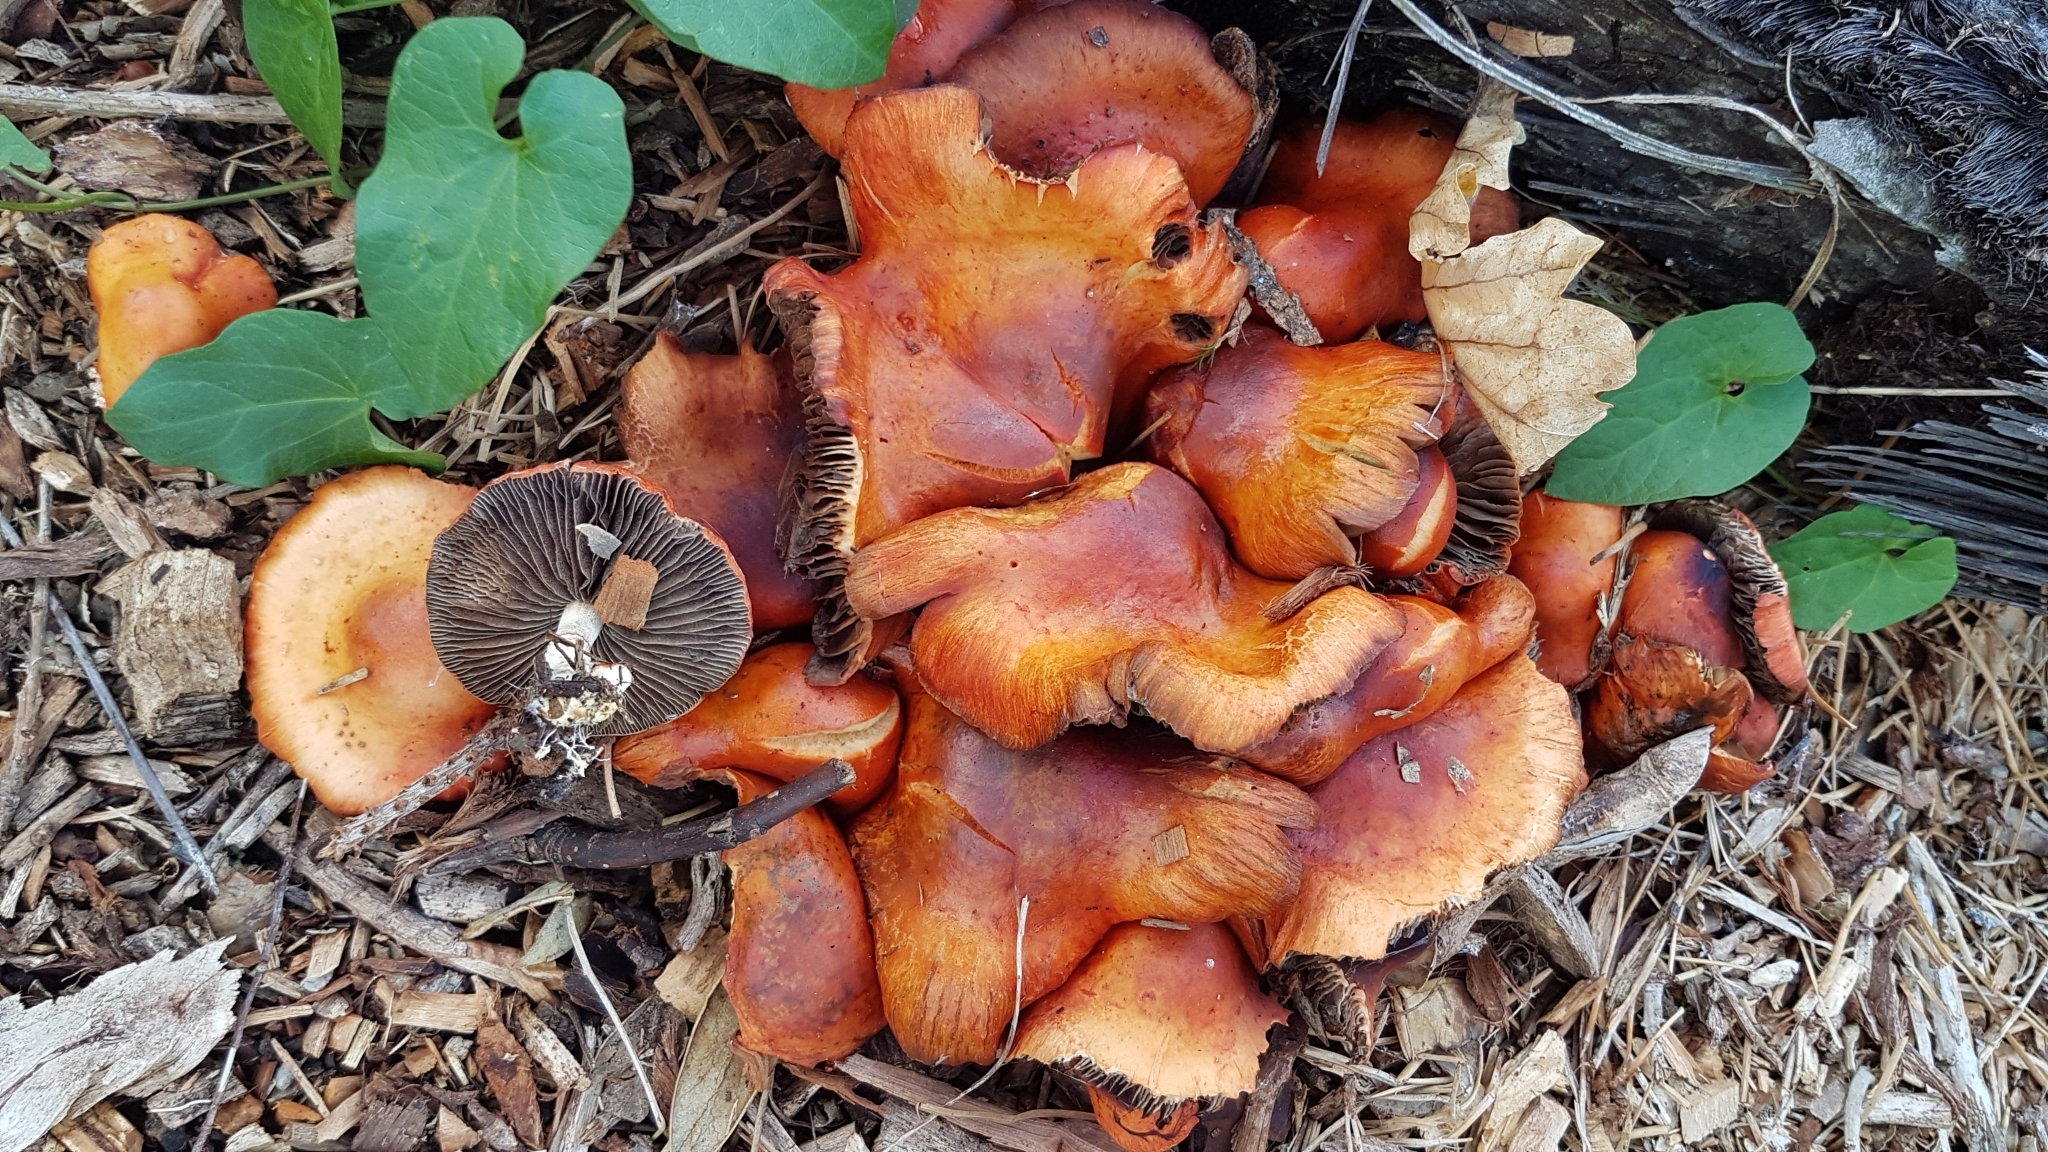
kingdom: Fungi
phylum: Basidiomycota
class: Agaricomycetes
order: Agaricales
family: Strophariaceae
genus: Leratiomyces
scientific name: Leratiomyces ceres
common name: Redlead roundhead
